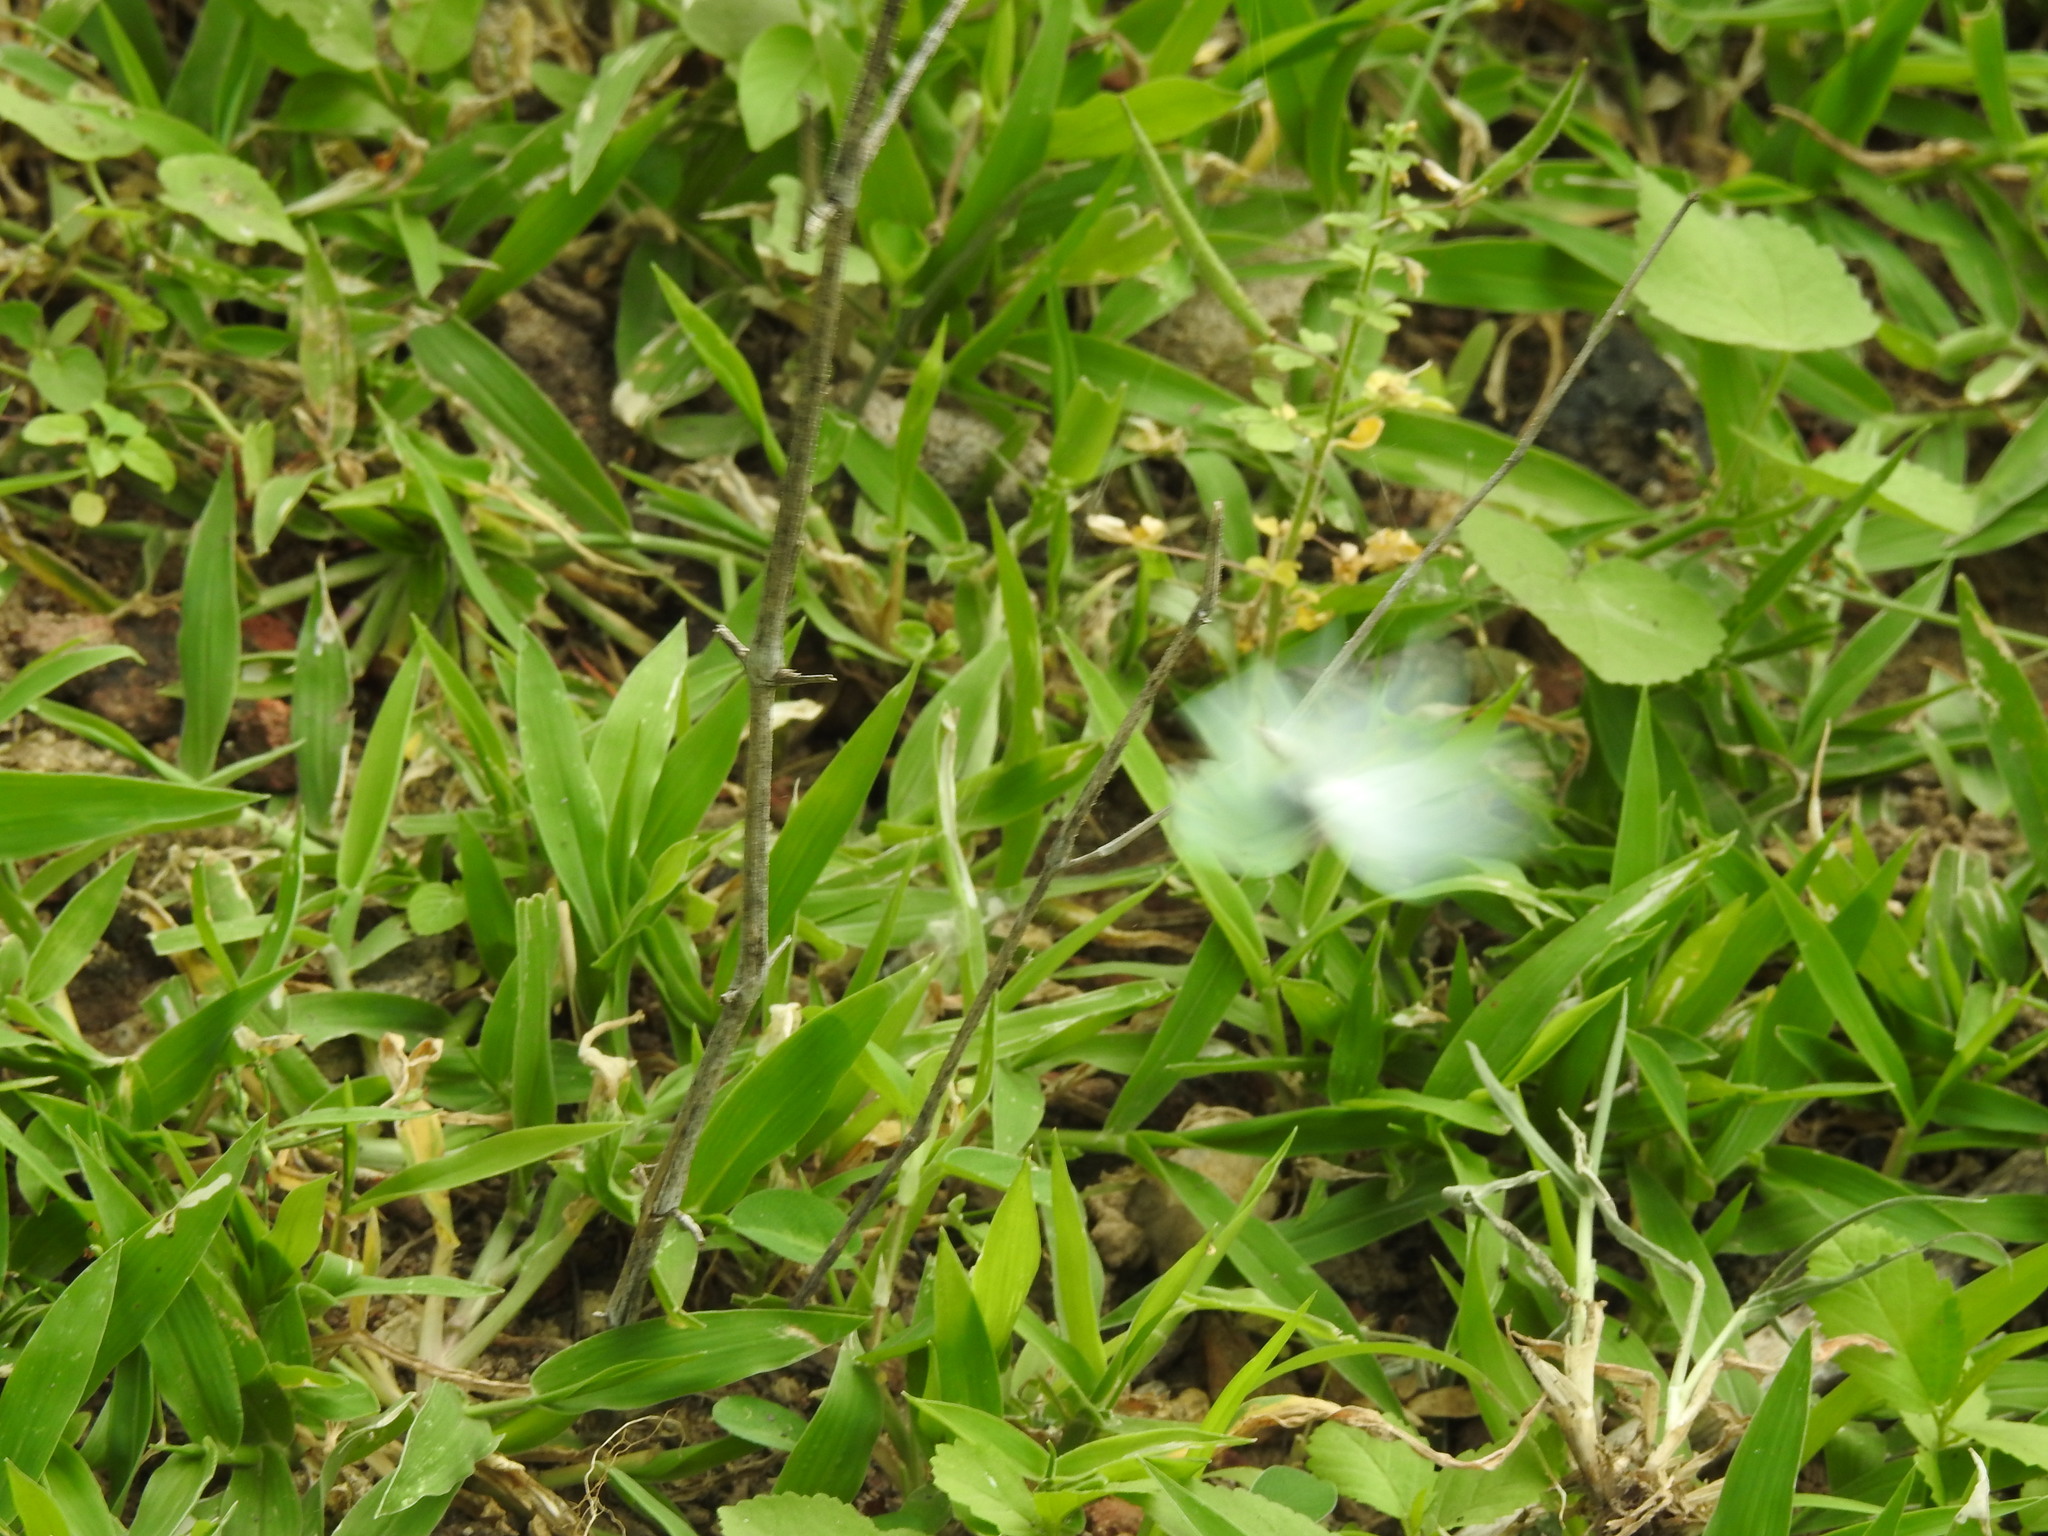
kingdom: Animalia
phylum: Arthropoda
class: Insecta
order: Lepidoptera
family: Pieridae
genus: Catopsilia
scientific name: Catopsilia pomona
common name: Common emigrant
